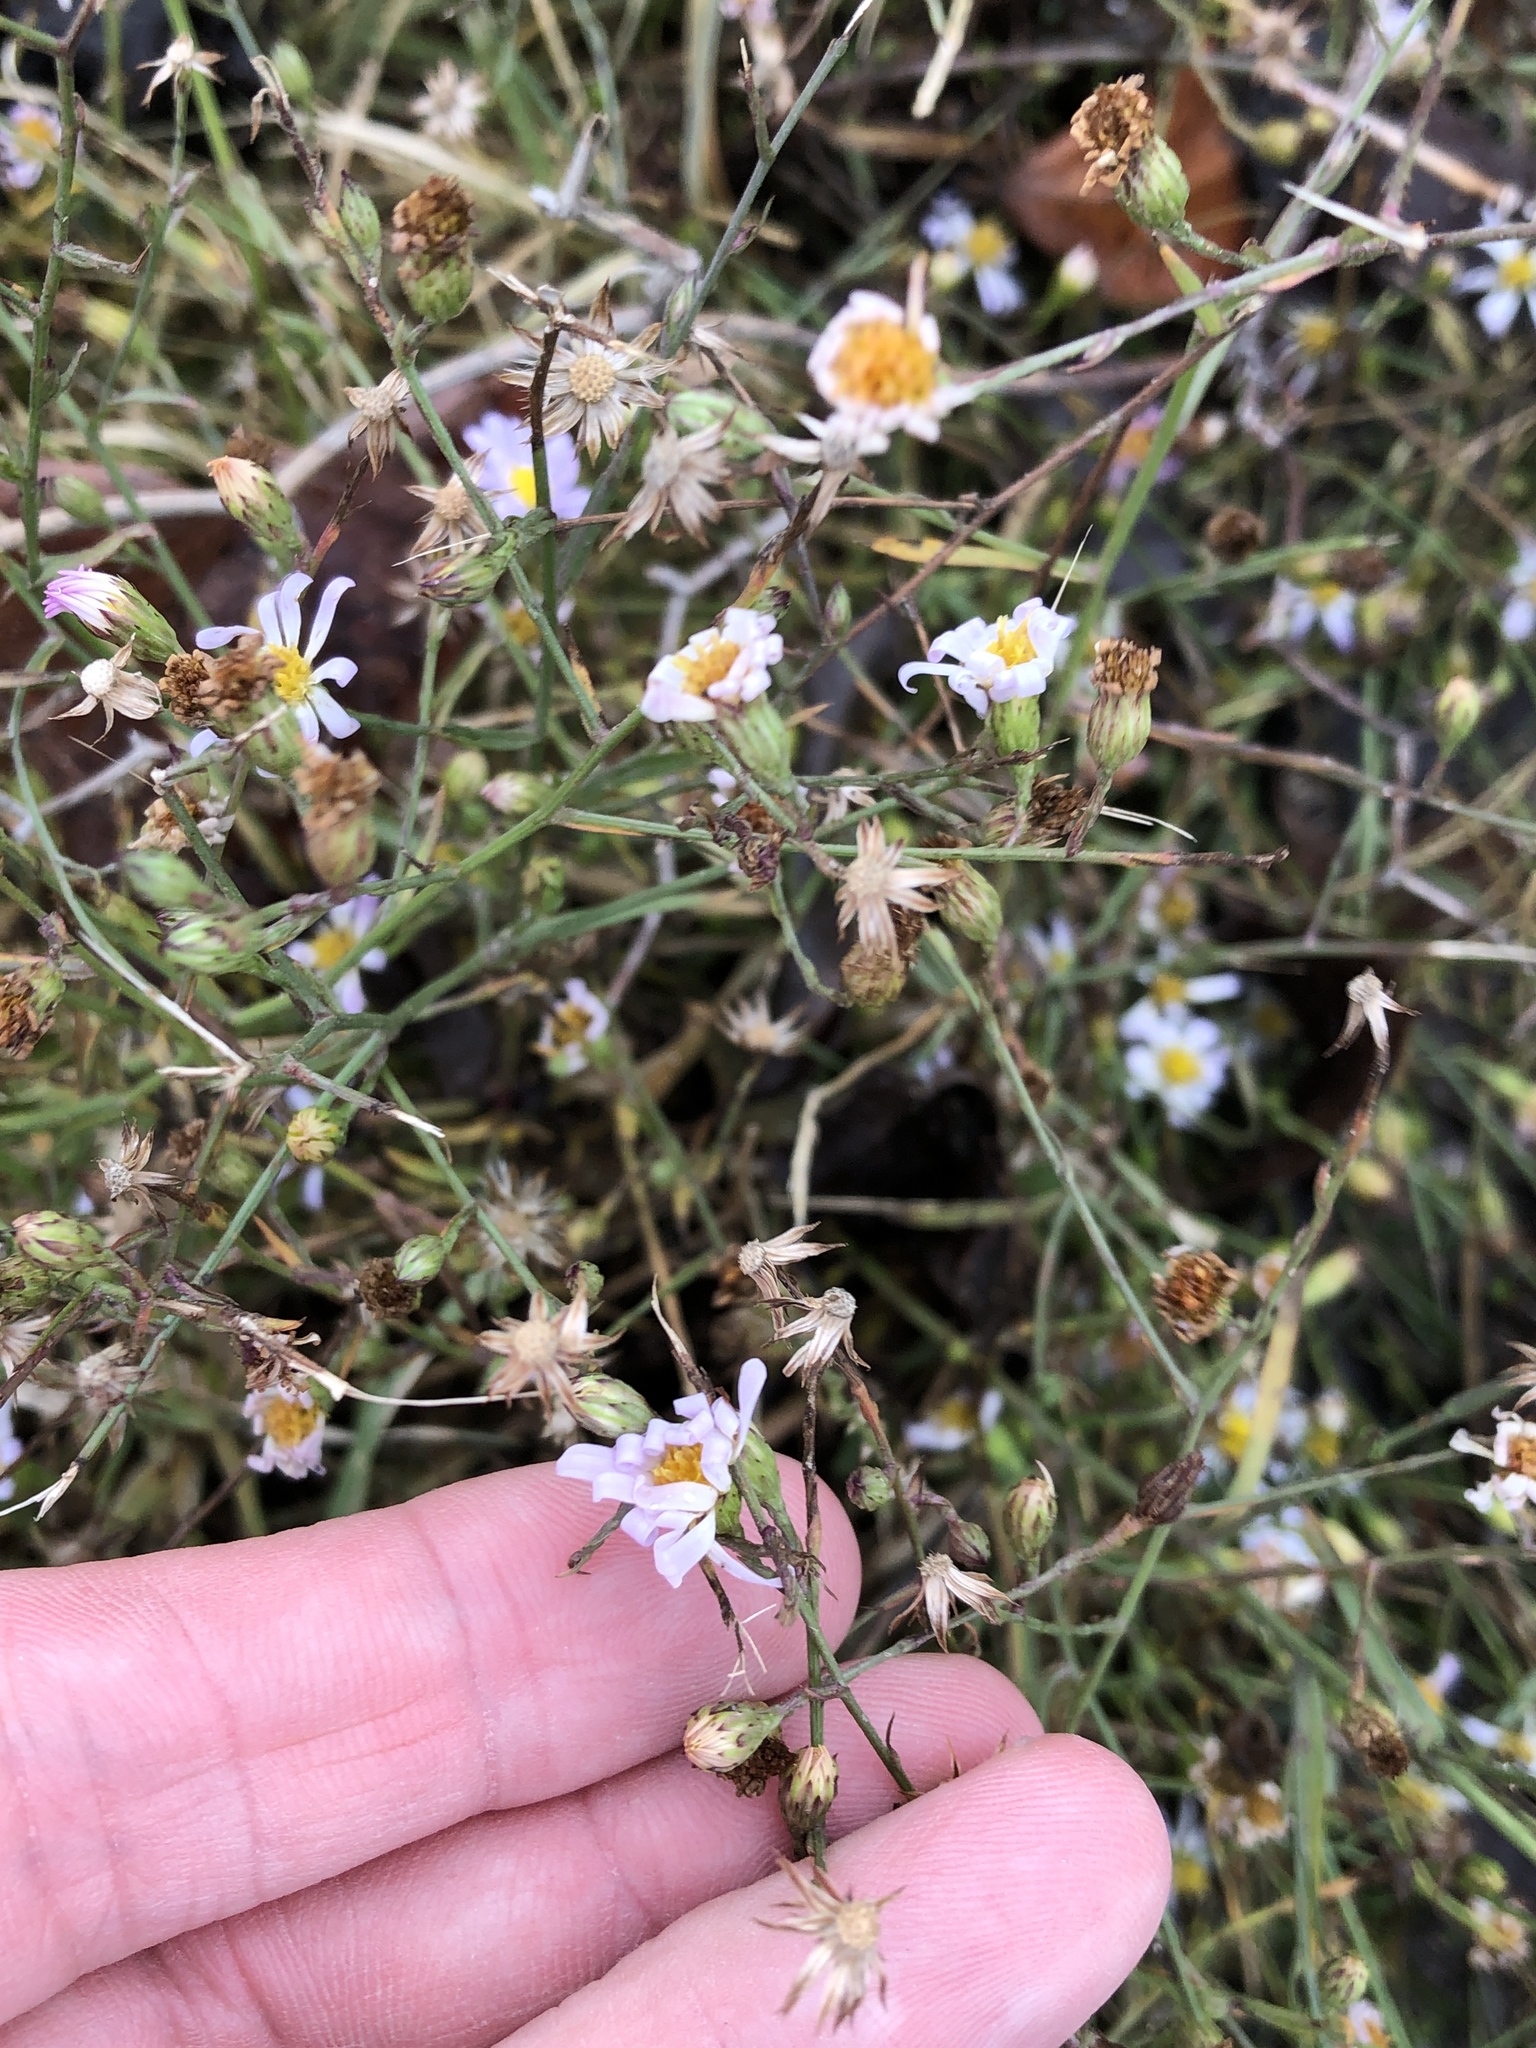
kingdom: Plantae
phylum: Tracheophyta
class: Magnoliopsida
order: Asterales
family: Asteraceae
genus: Symphyotrichum
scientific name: Symphyotrichum divaricatum
